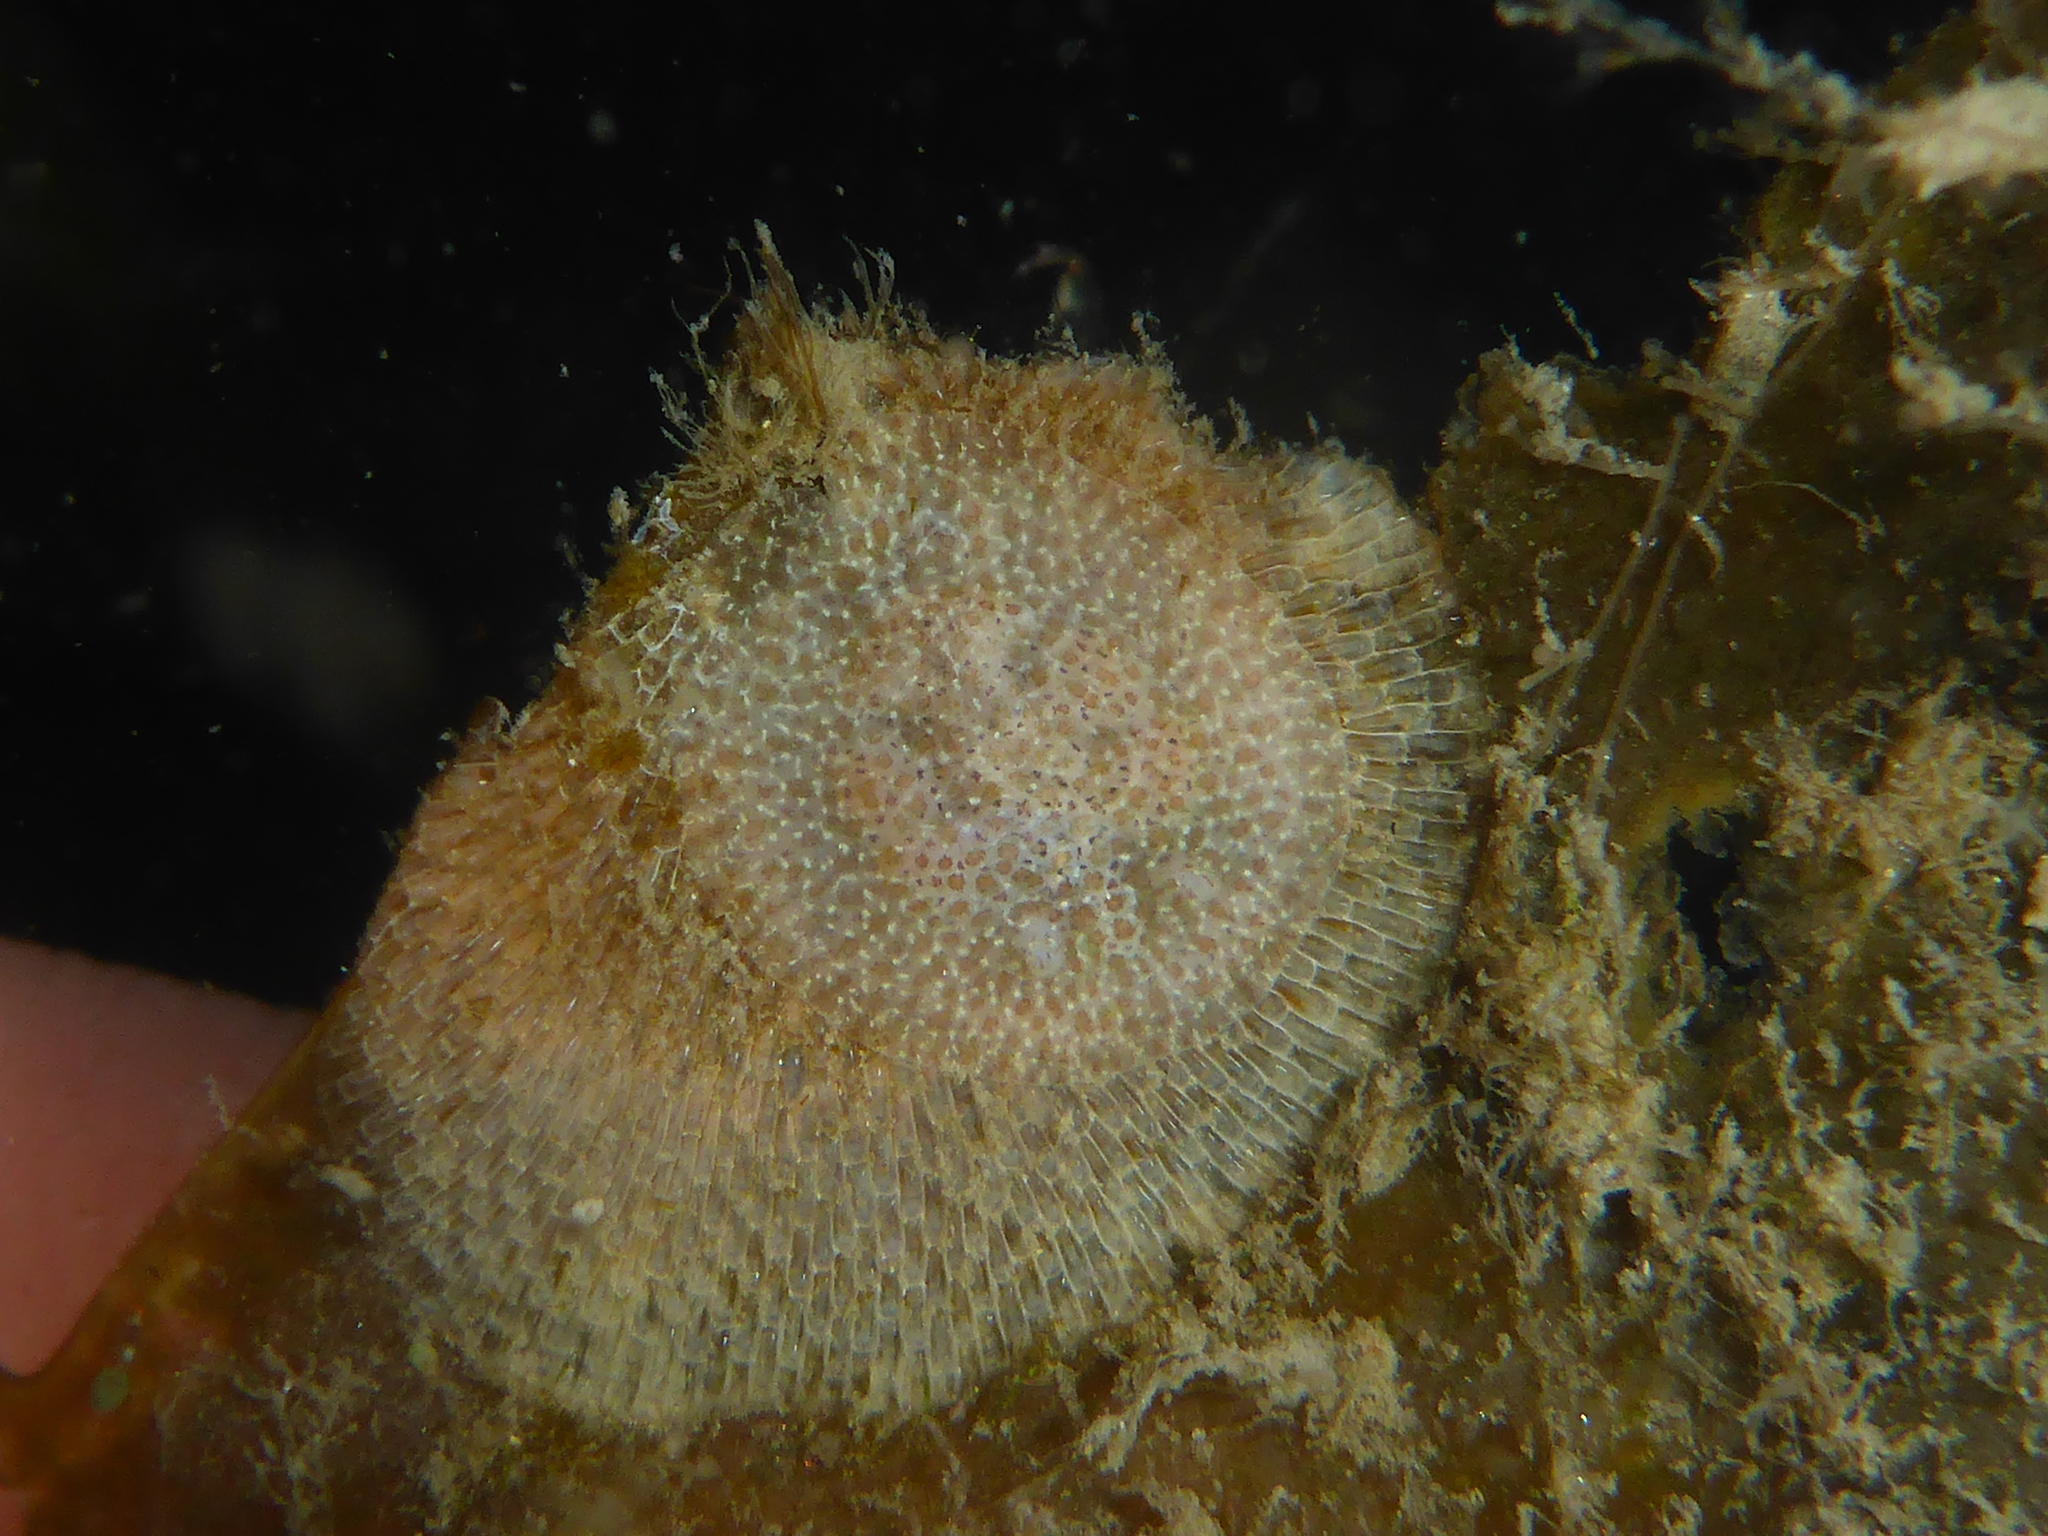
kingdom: Animalia
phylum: Mollusca
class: Gastropoda
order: Nudibranchia
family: Corambidae
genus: Corambe
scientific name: Corambe pacifica
